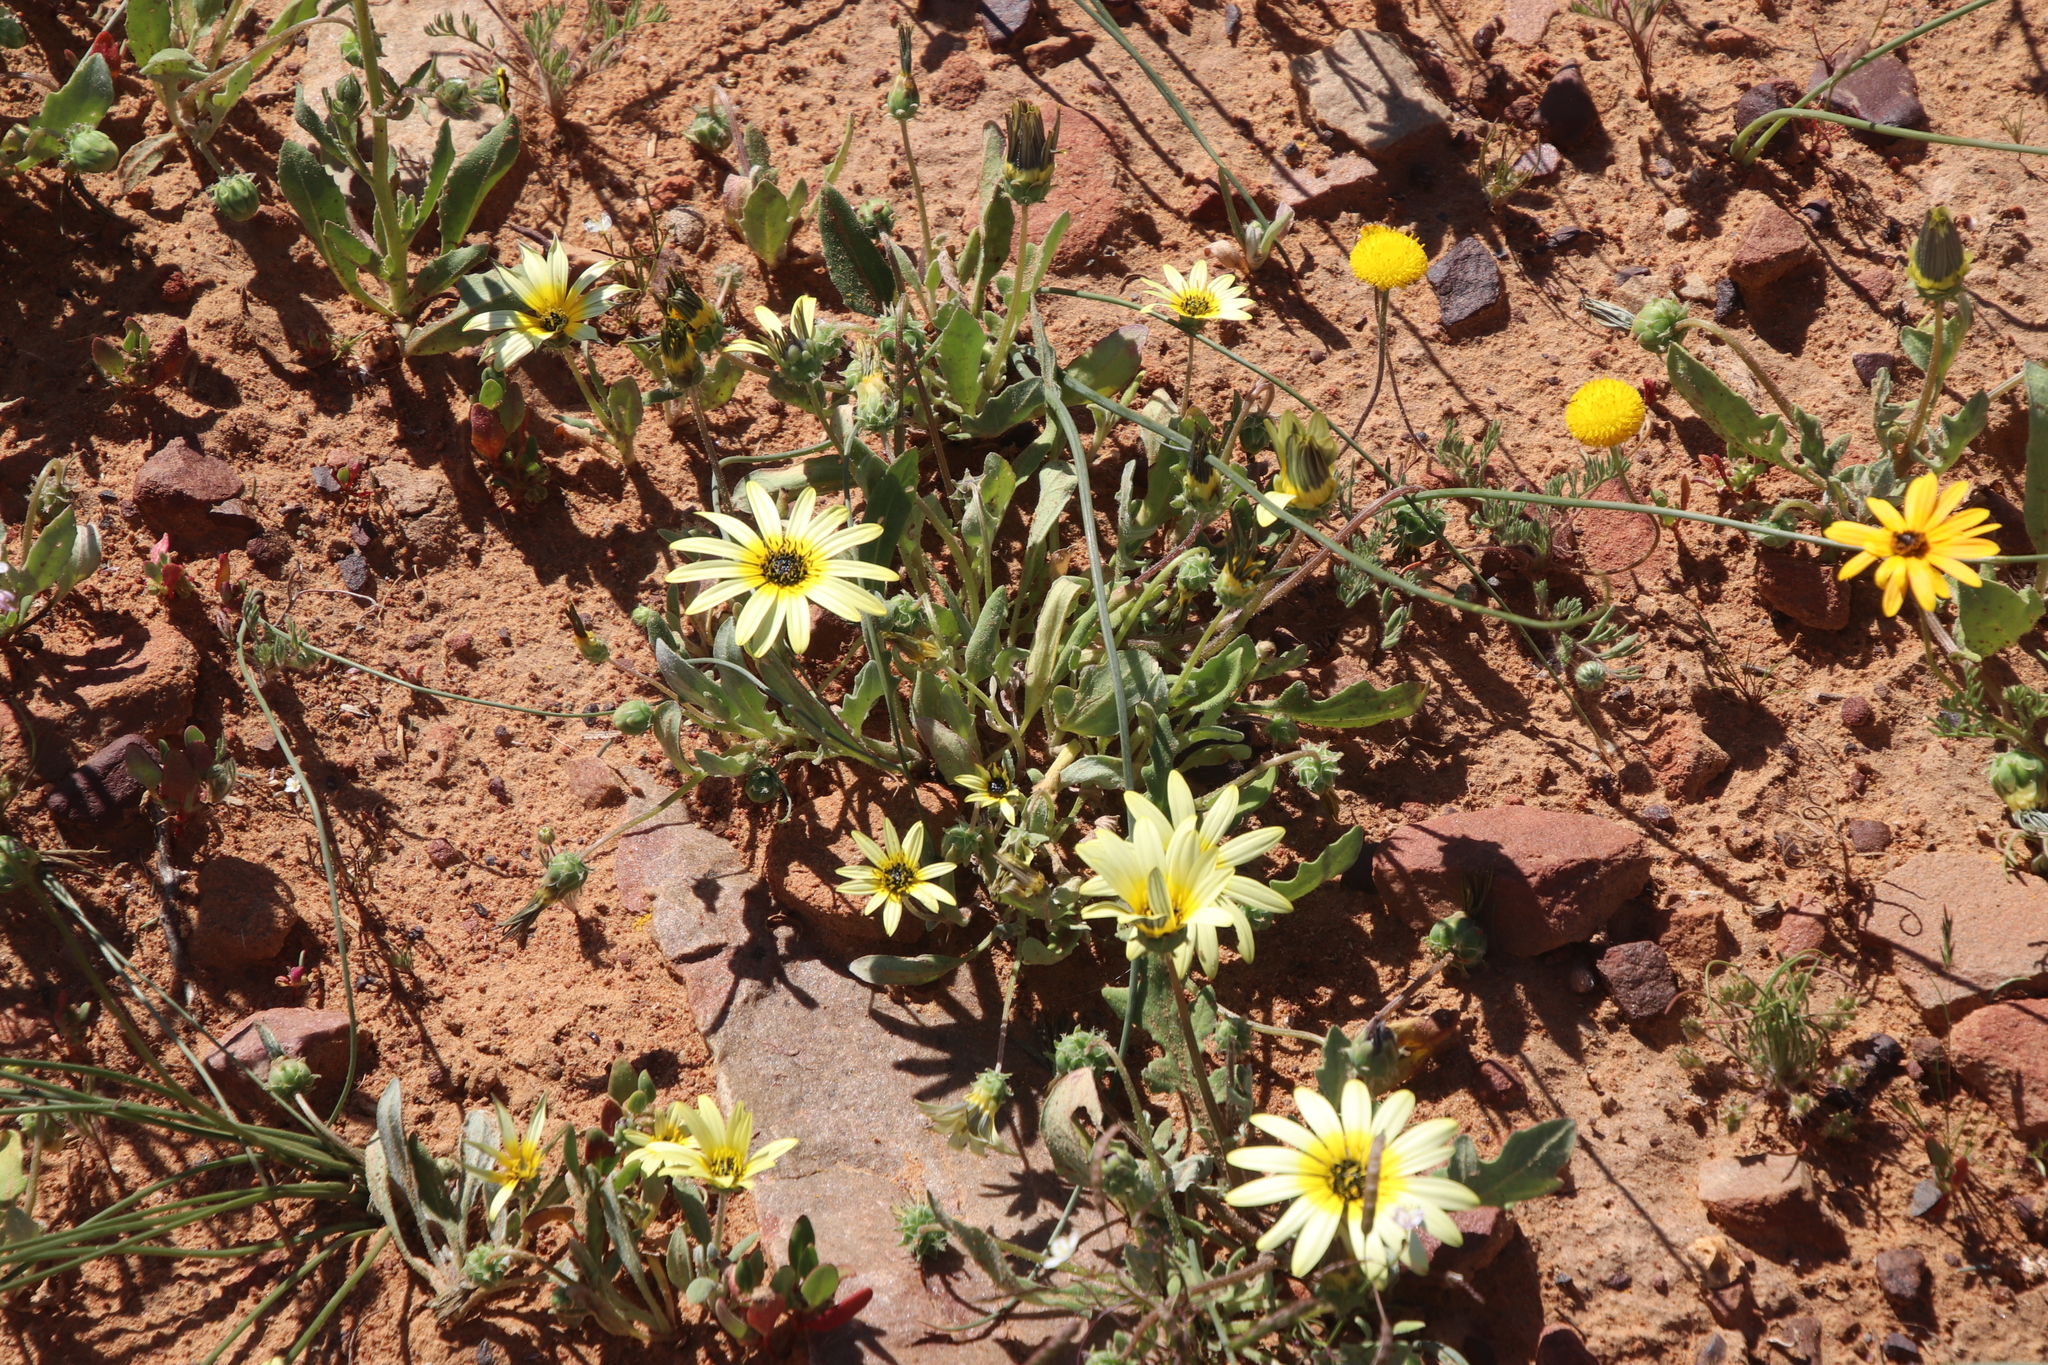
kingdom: Plantae
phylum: Tracheophyta
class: Magnoliopsida
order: Asterales
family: Asteraceae
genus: Arctotheca
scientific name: Arctotheca calendula
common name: Capeweed
